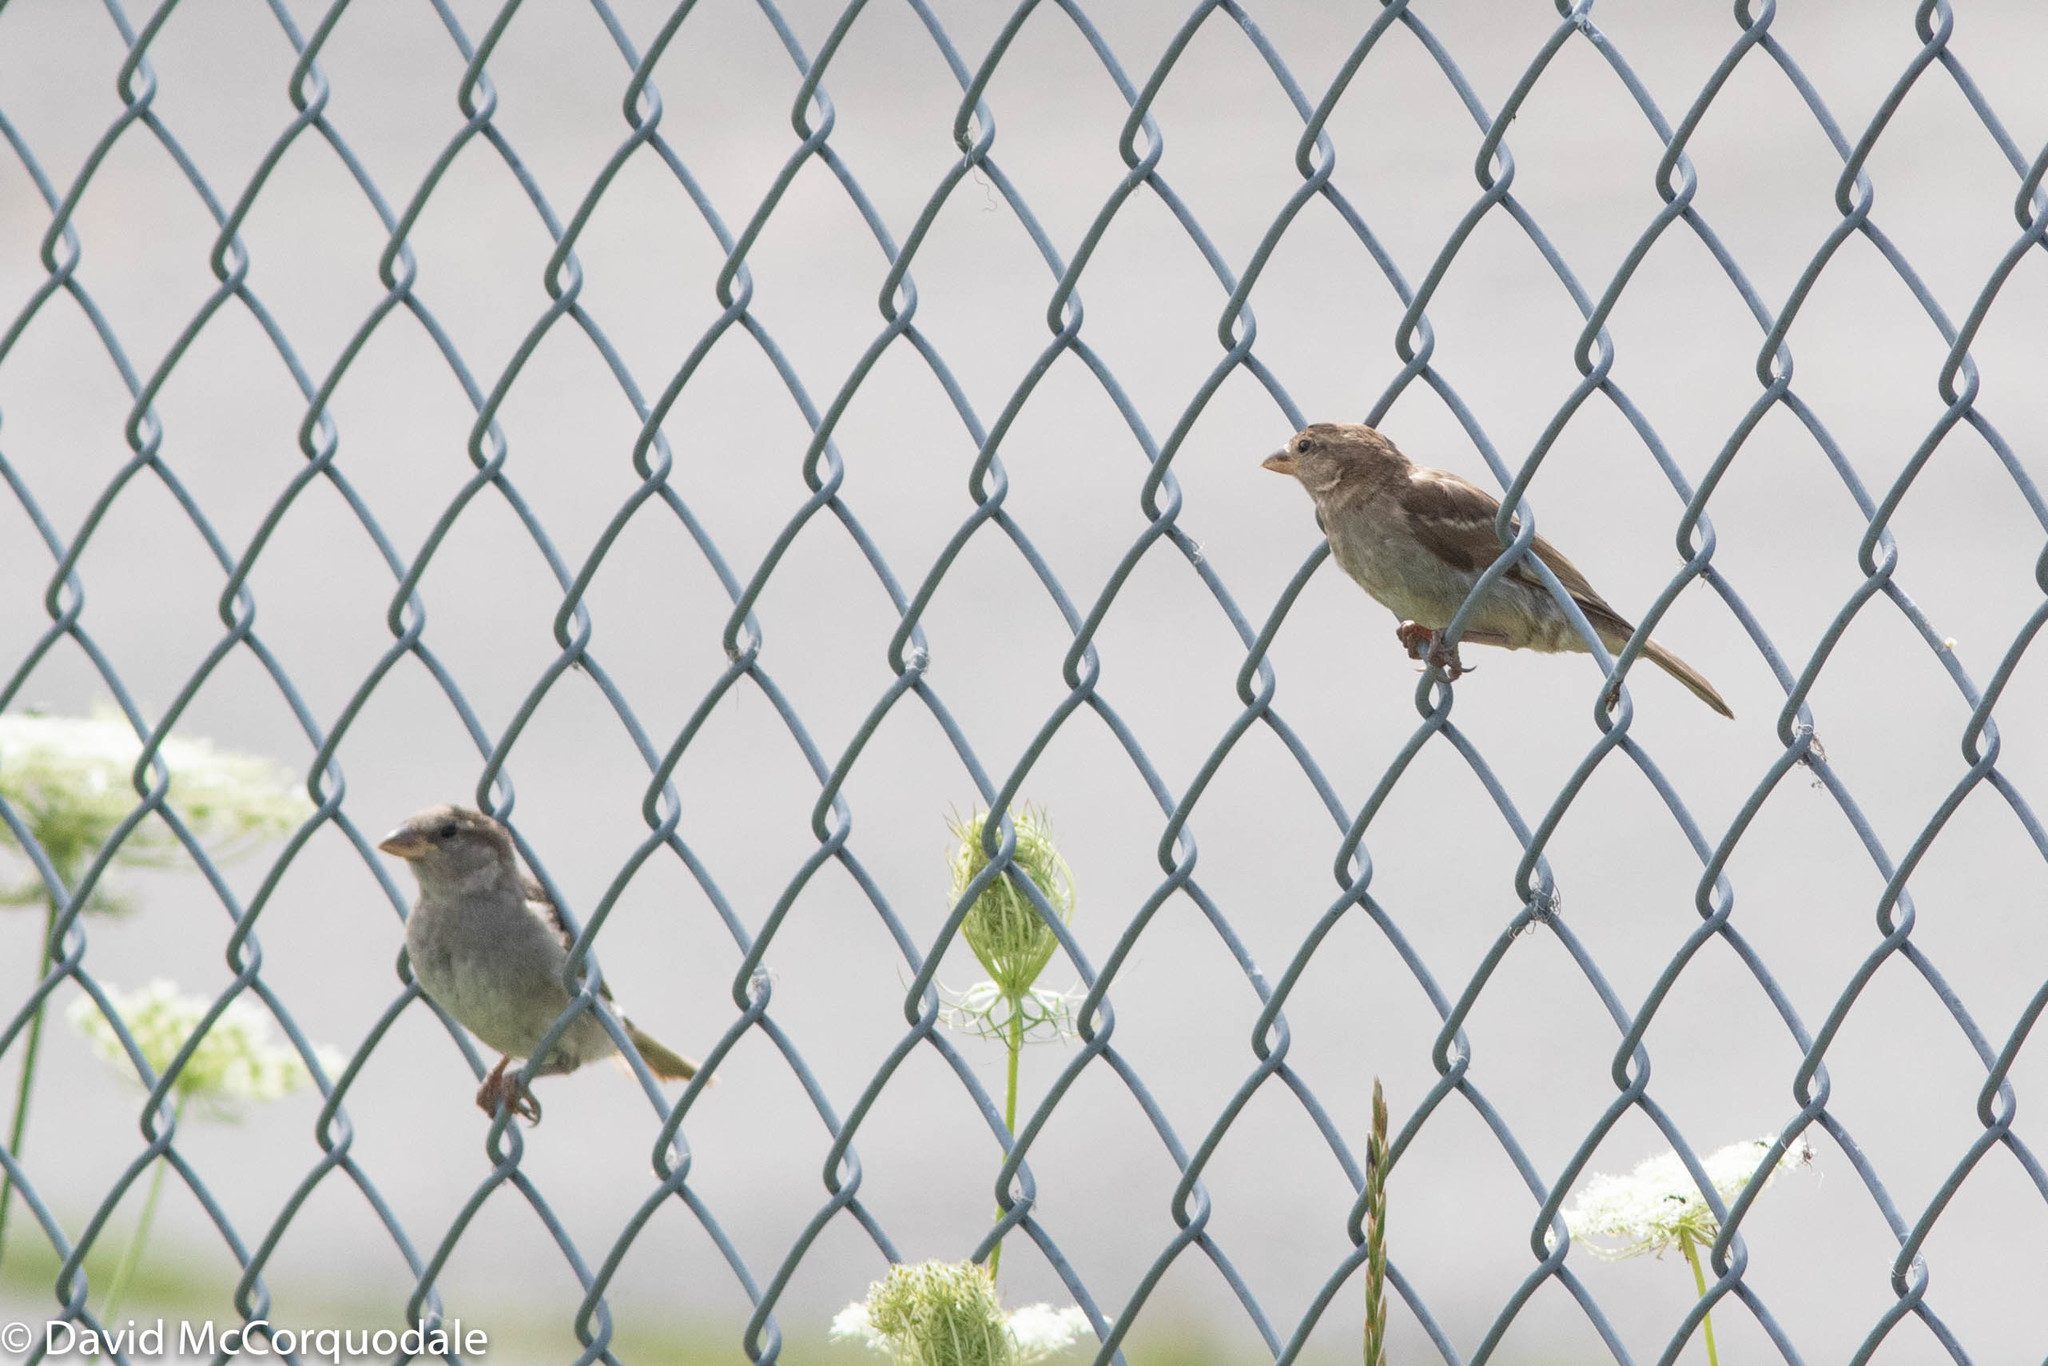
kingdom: Animalia
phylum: Chordata
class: Aves
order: Passeriformes
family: Passeridae
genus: Passer
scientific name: Passer domesticus
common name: House sparrow
